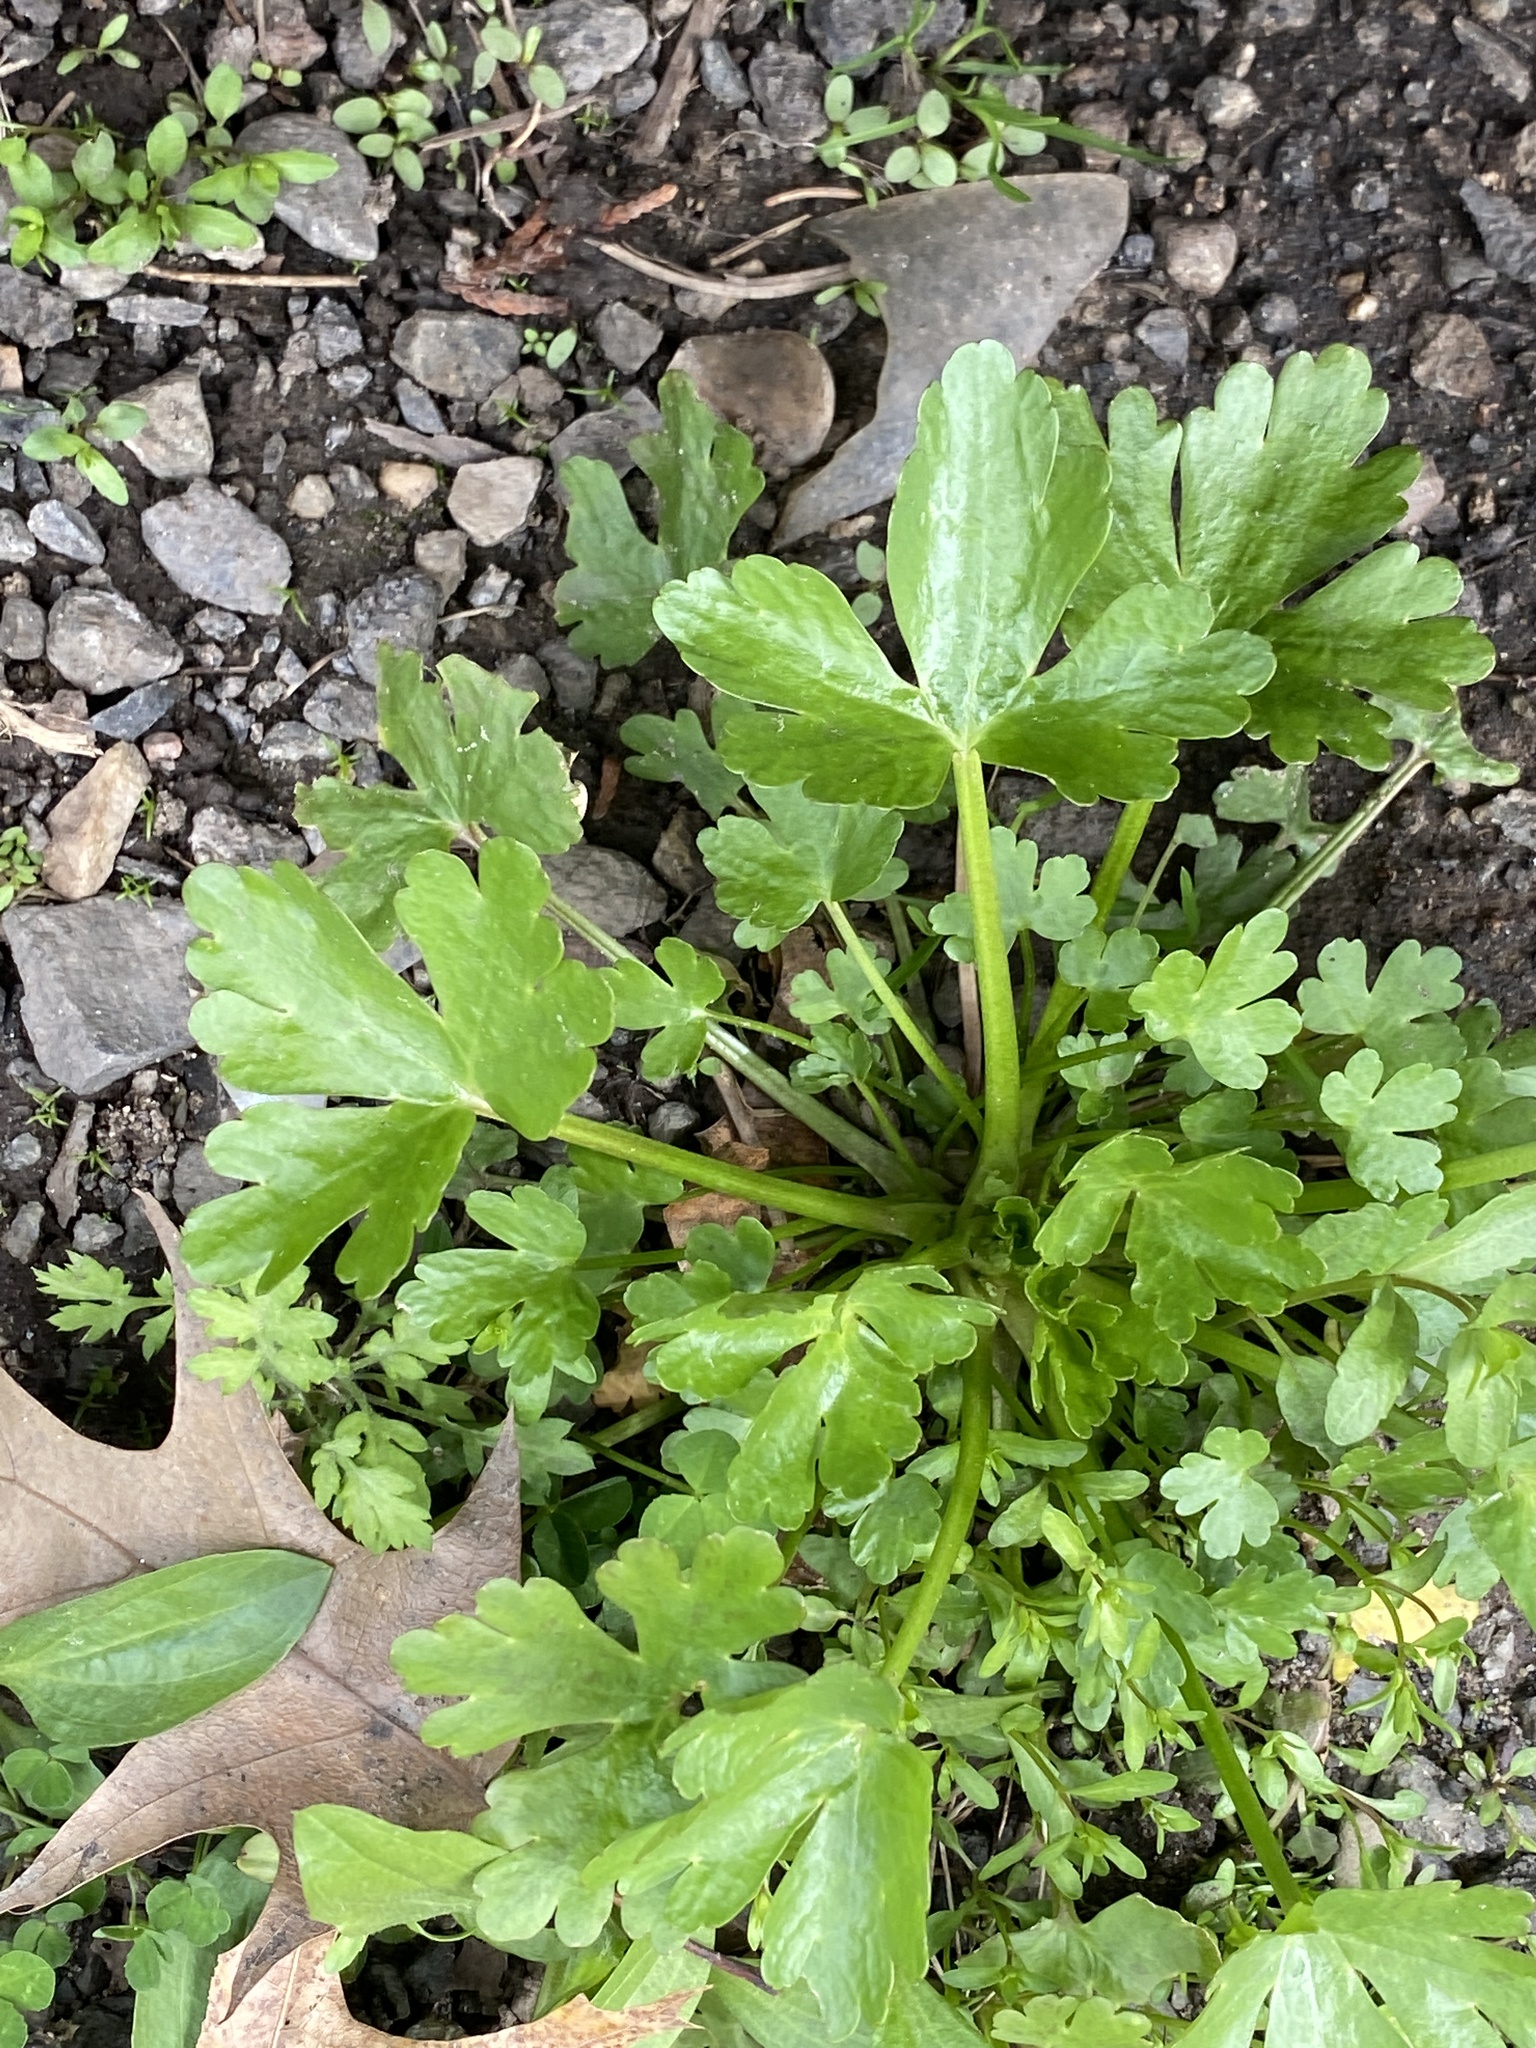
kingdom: Plantae
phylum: Tracheophyta
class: Magnoliopsida
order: Ranunculales
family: Ranunculaceae
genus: Ranunculus
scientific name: Ranunculus sceleratus
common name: Celery-leaved buttercup
